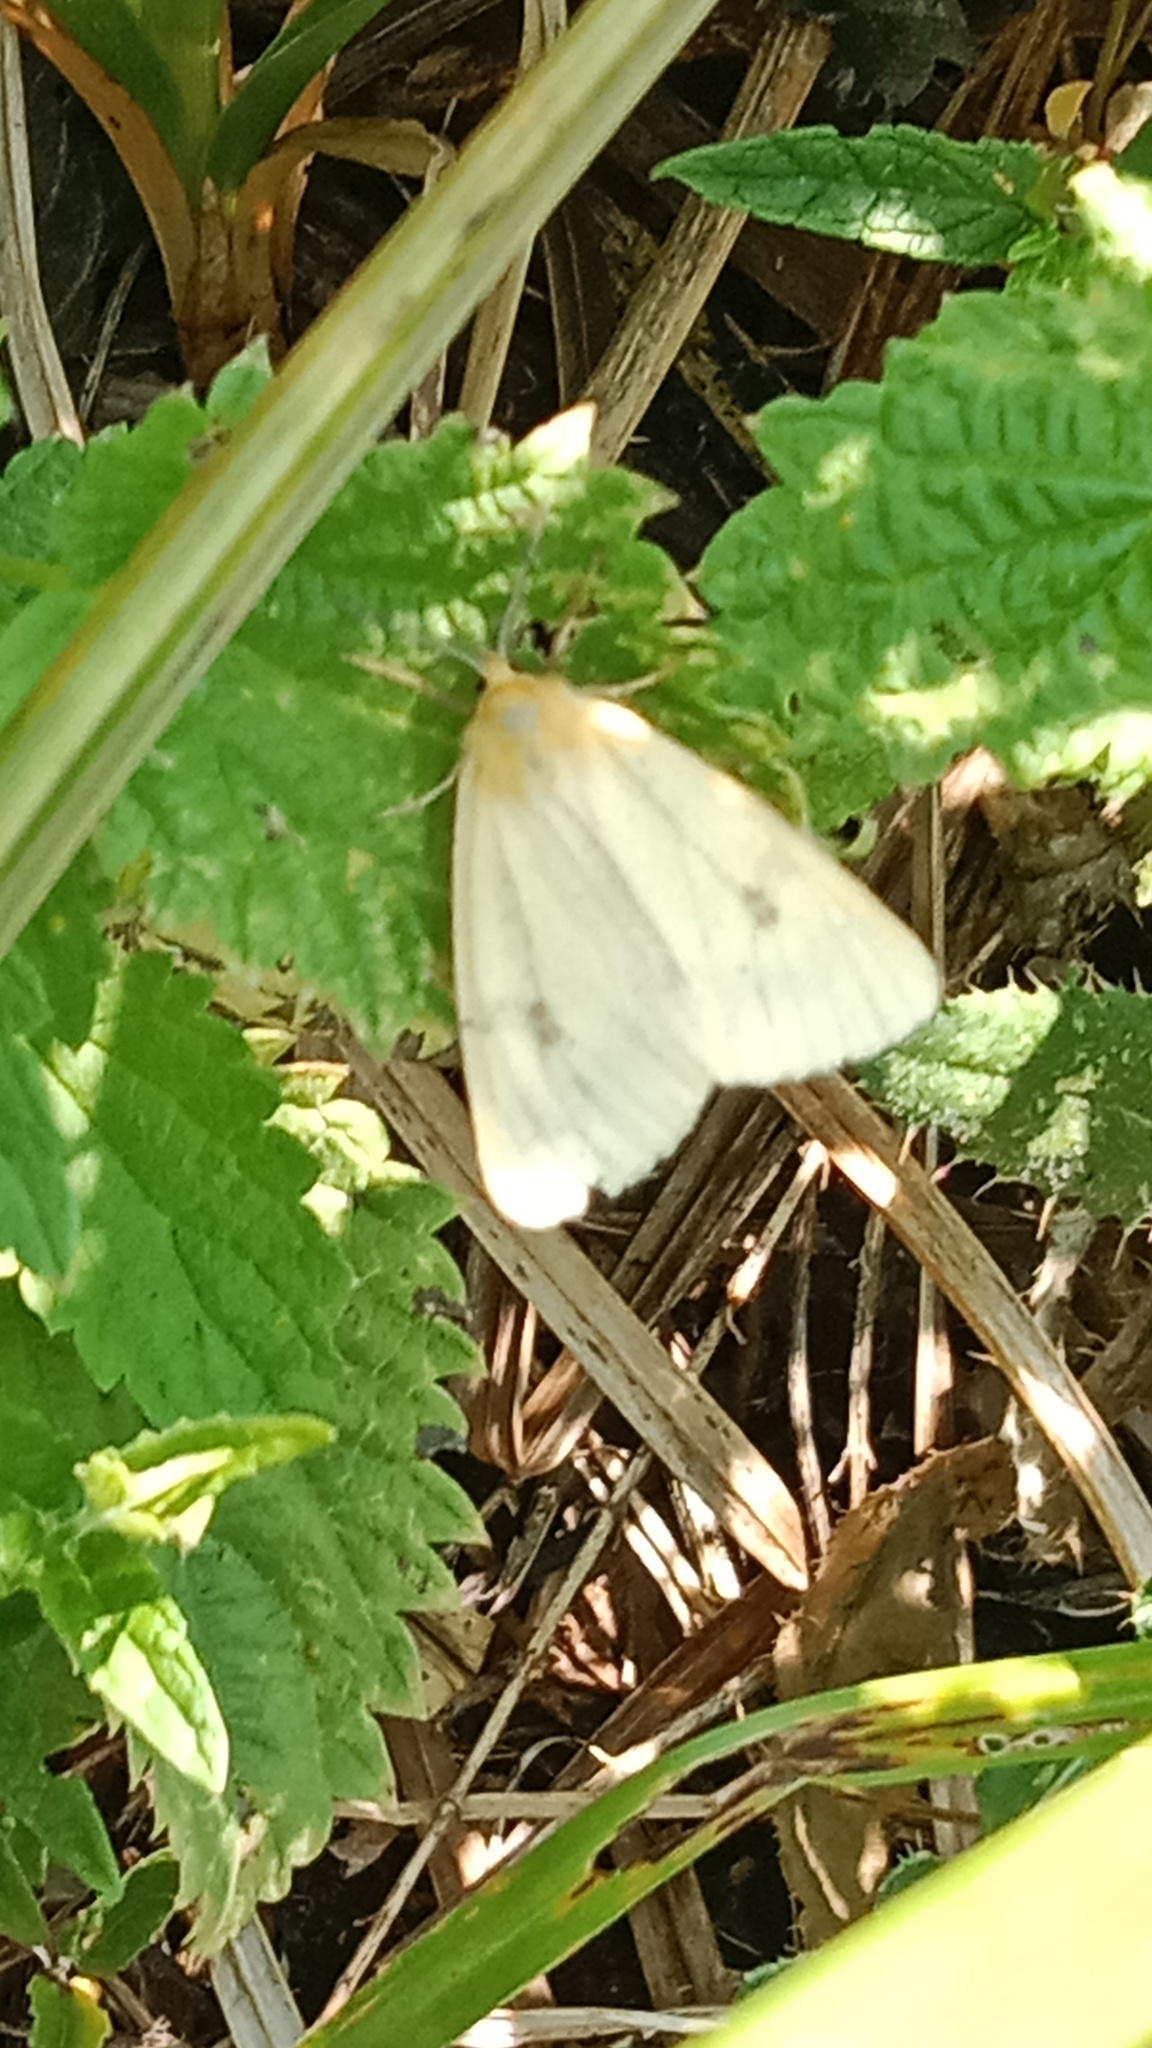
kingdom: Animalia
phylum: Arthropoda
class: Insecta
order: Lepidoptera
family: Erebidae
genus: Diacrisia
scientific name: Diacrisia sannio
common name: Clouded buff
